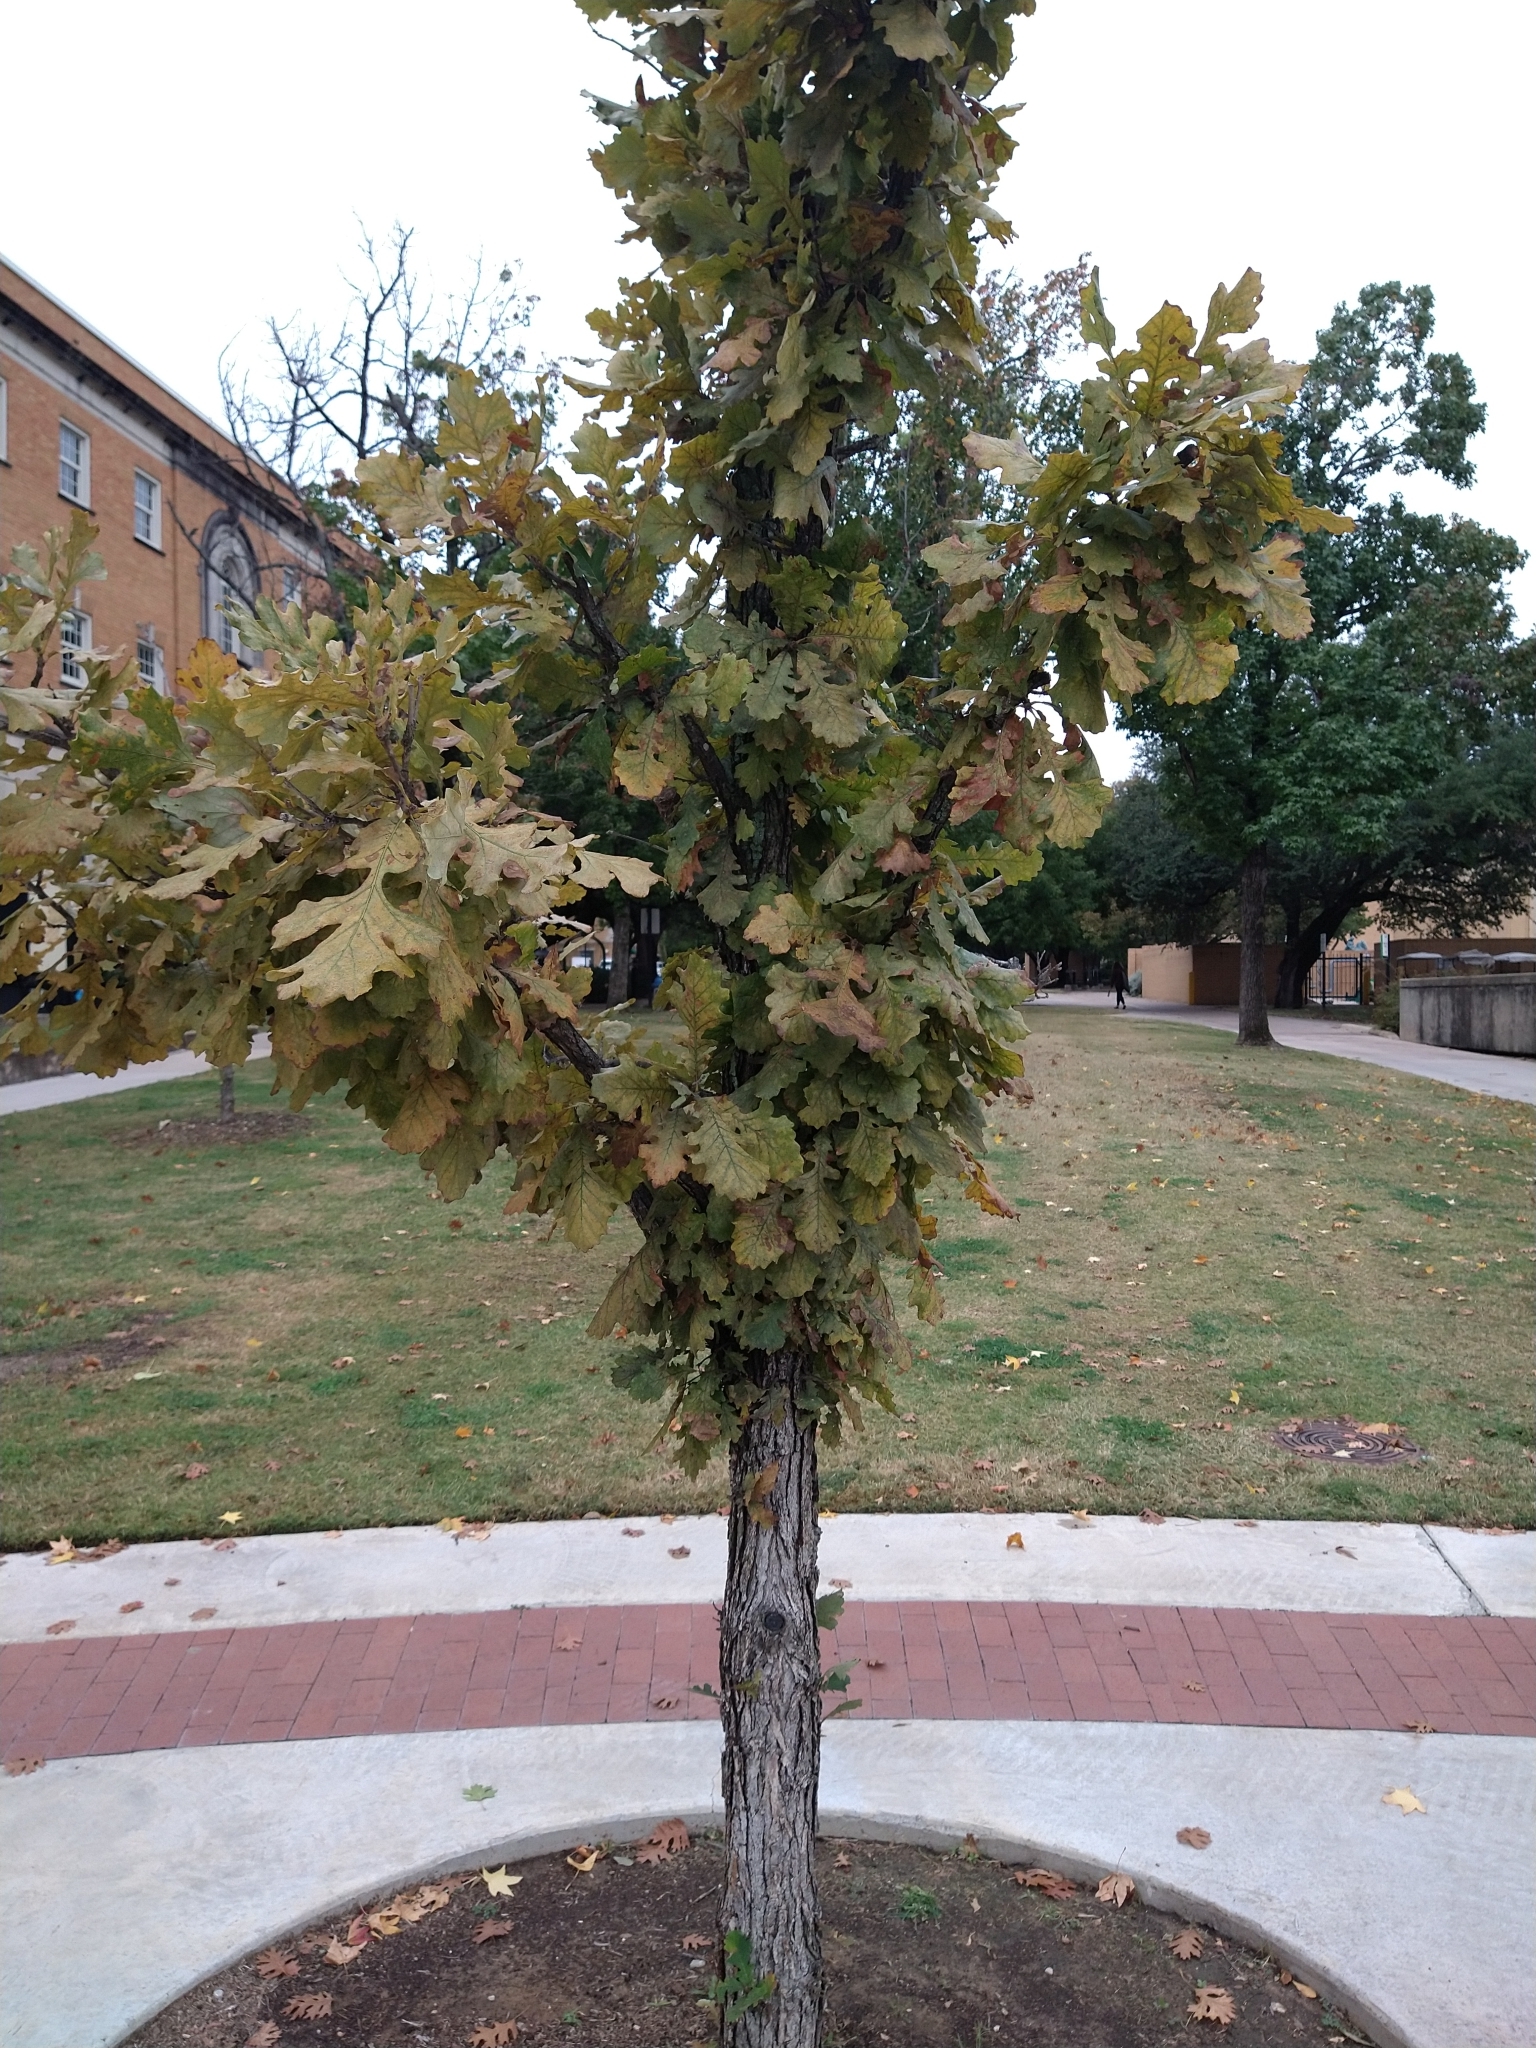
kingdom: Plantae
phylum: Tracheophyta
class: Magnoliopsida
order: Fagales
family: Fagaceae
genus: Quercus
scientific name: Quercus macrocarpa
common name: Bur oak
